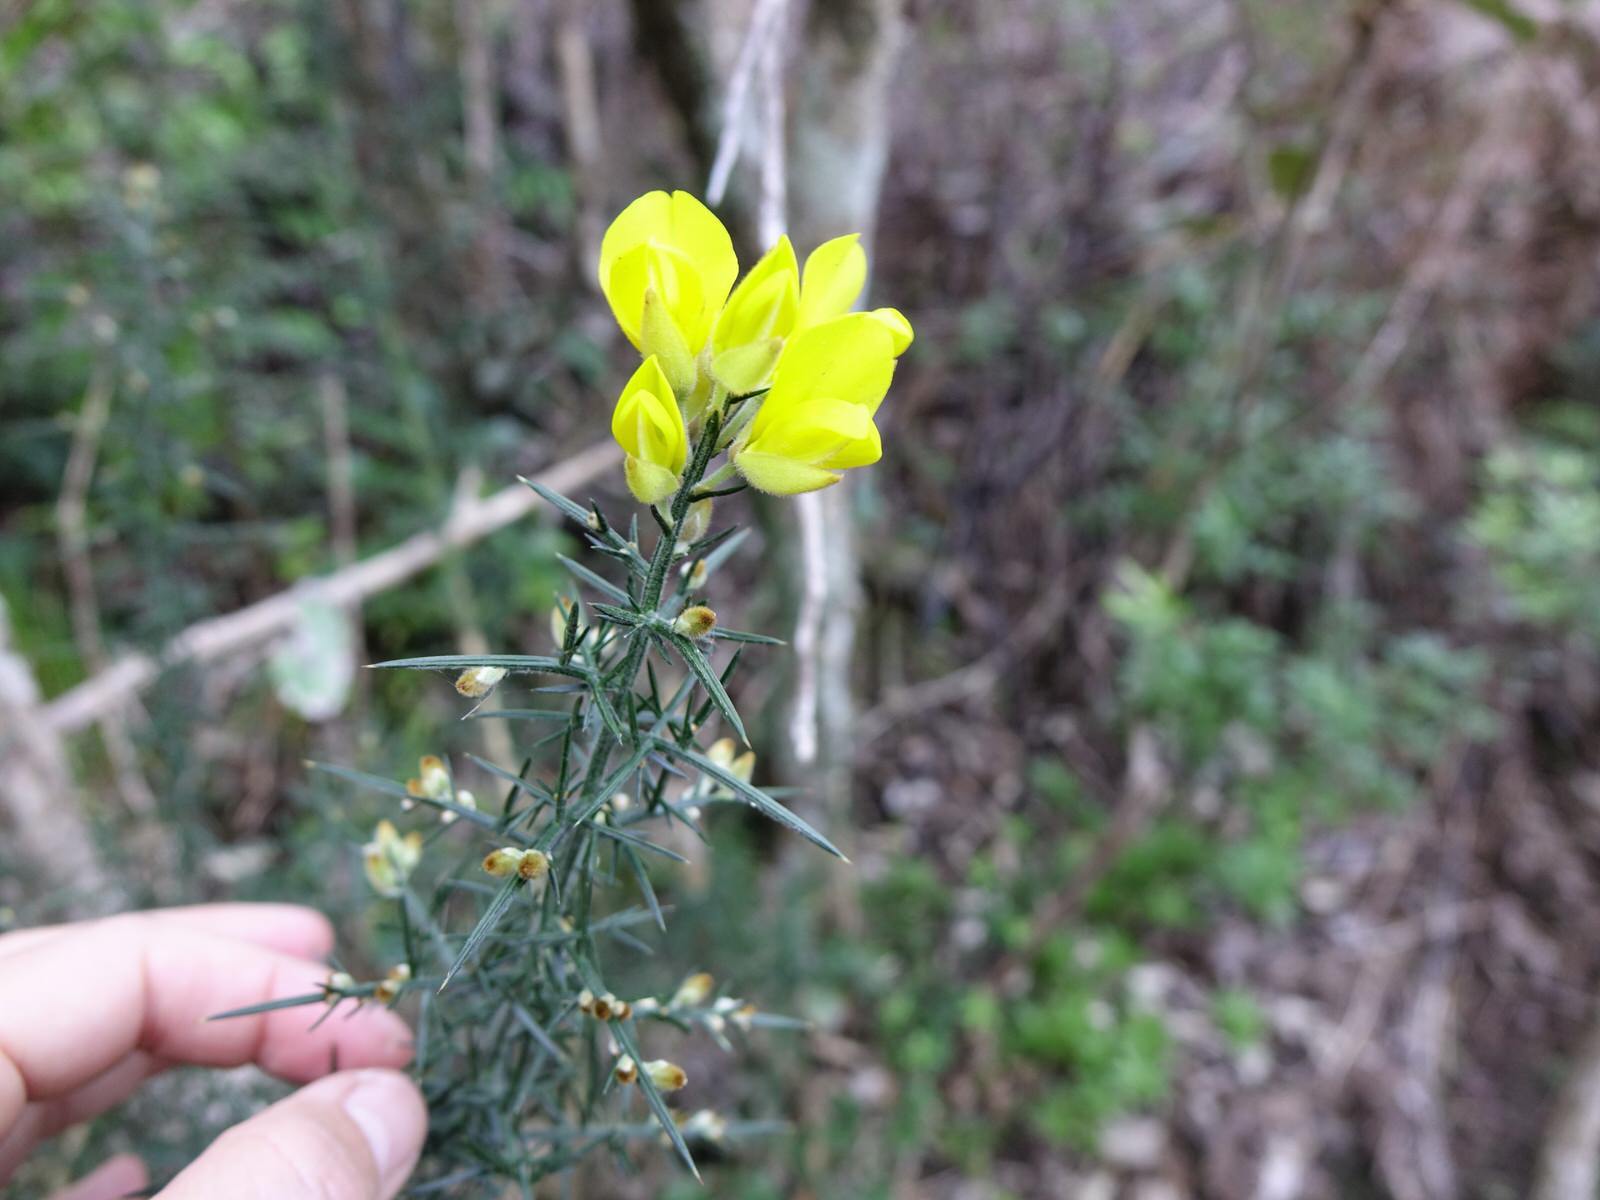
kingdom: Plantae
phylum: Tracheophyta
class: Magnoliopsida
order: Fabales
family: Fabaceae
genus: Ulex
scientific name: Ulex europaeus
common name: Common gorse
